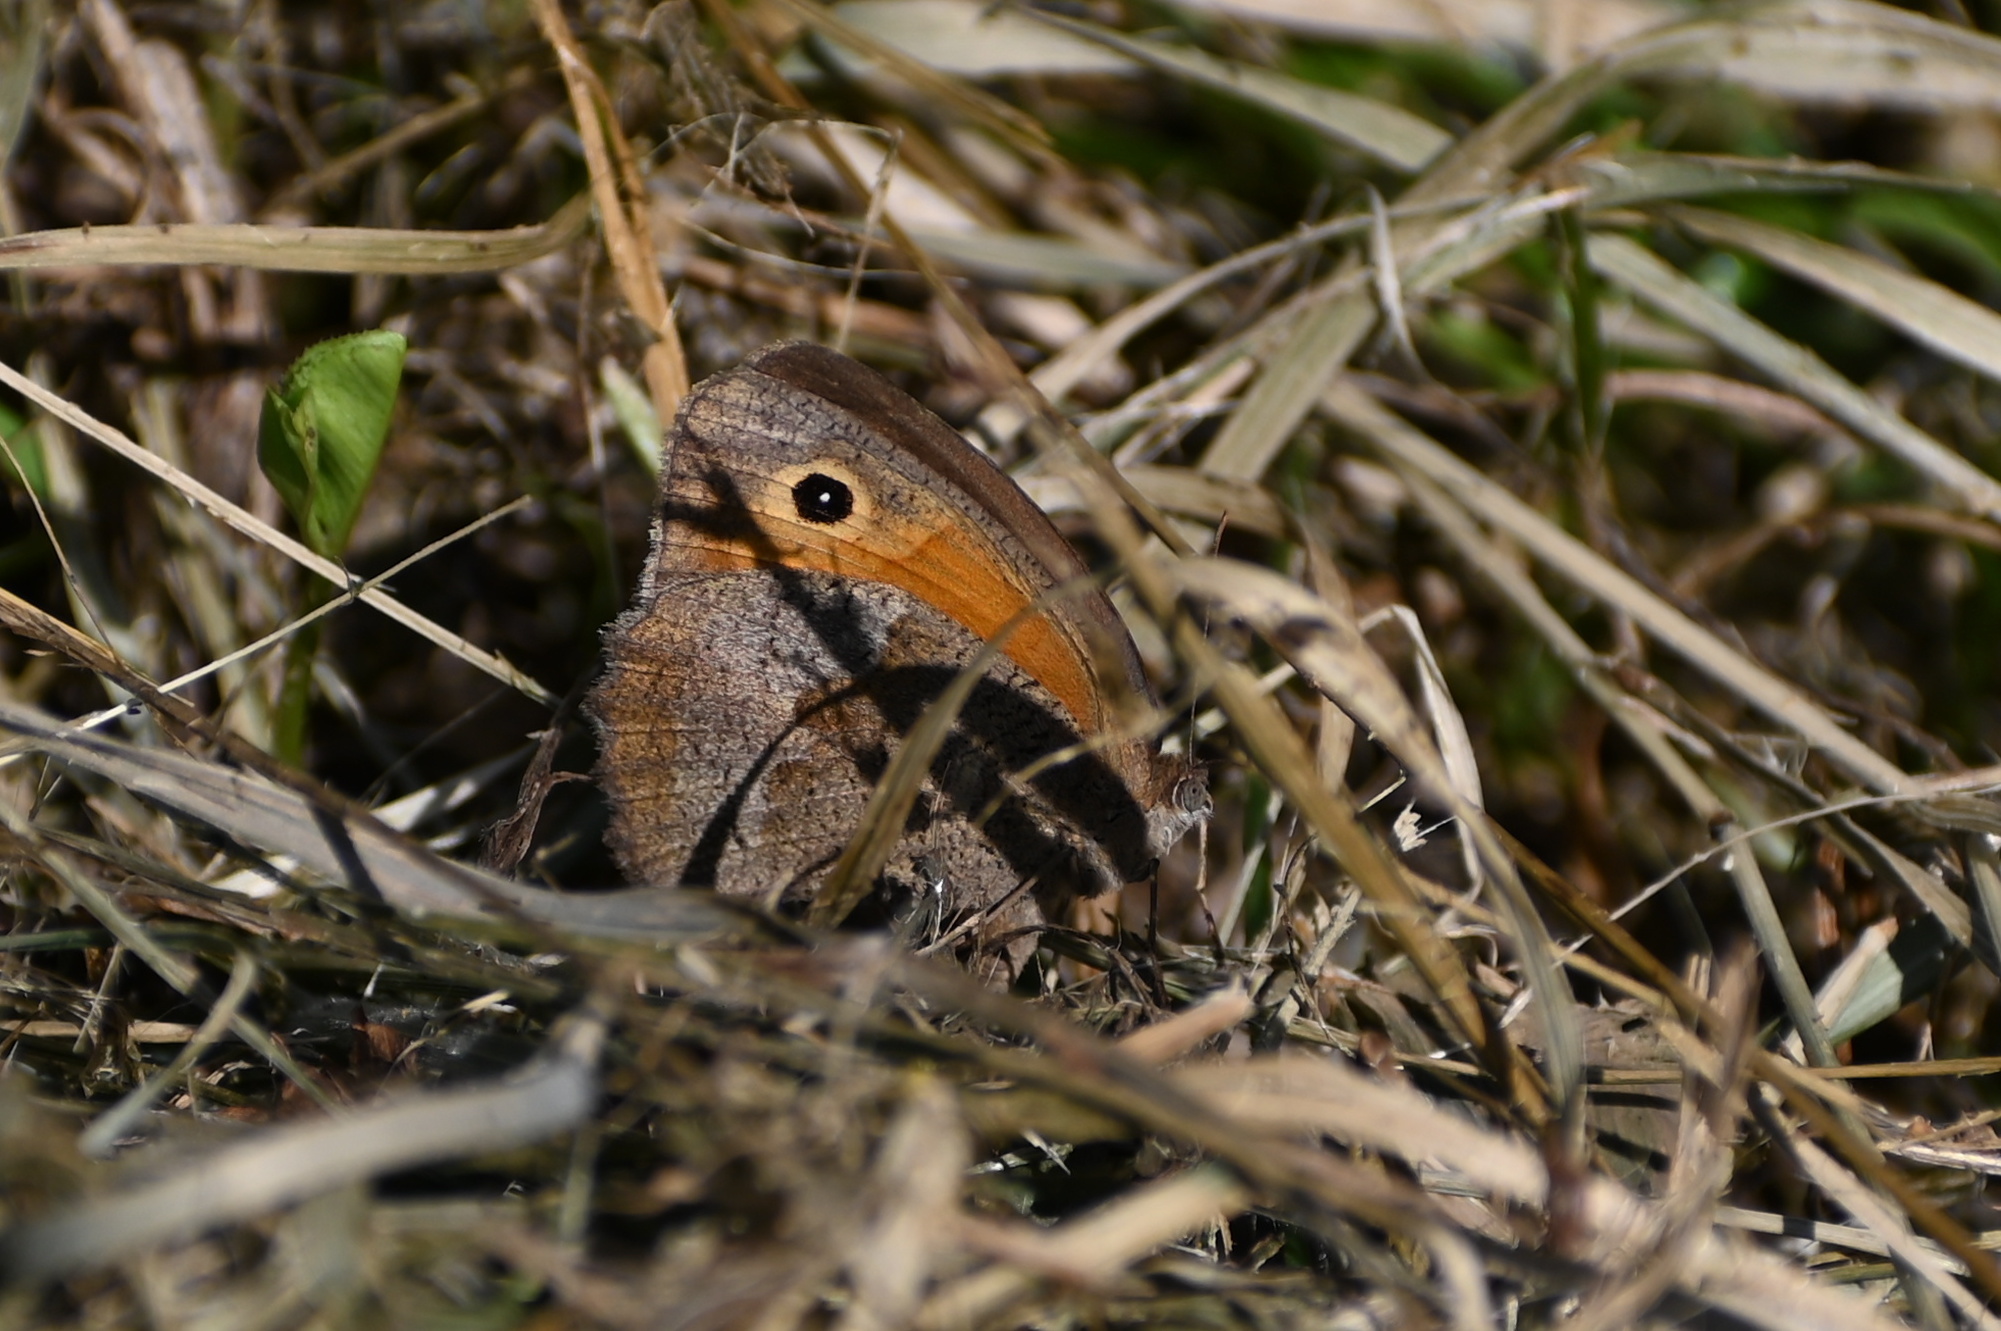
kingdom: Animalia
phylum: Arthropoda
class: Insecta
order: Lepidoptera
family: Nymphalidae
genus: Maniola
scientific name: Maniola jurtina
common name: Meadow brown
